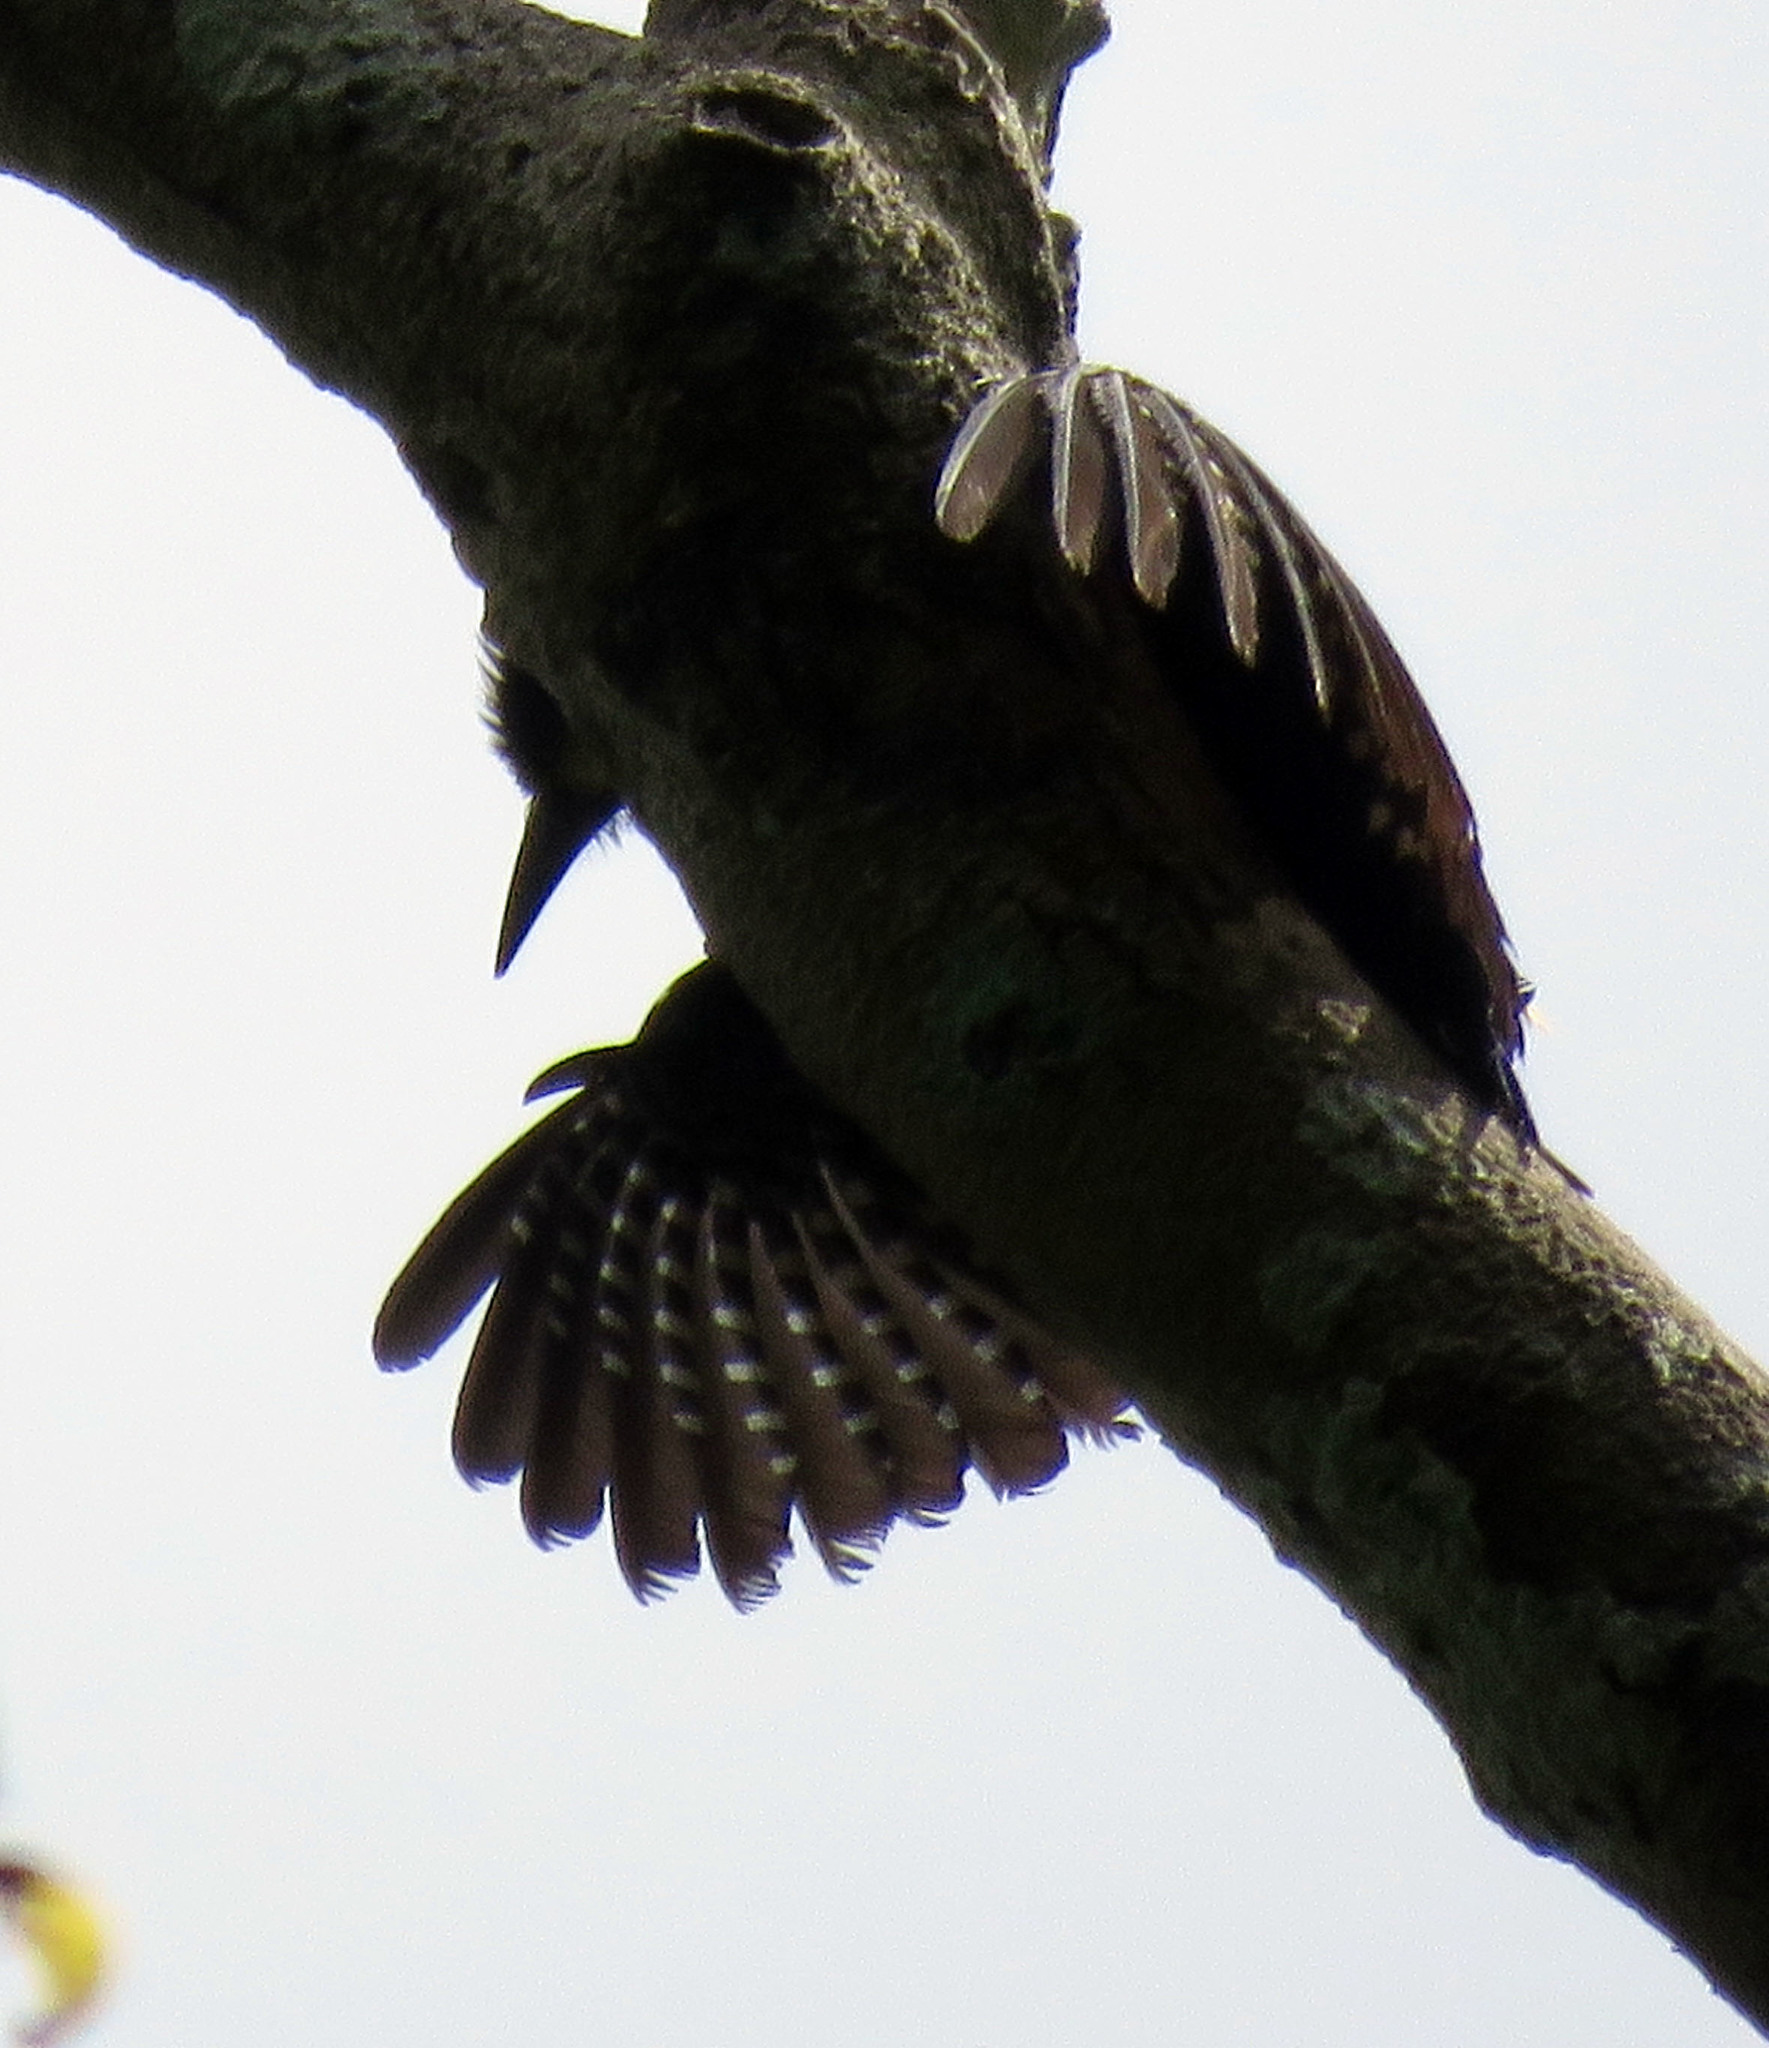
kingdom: Animalia
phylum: Chordata
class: Aves
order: Piciformes
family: Picidae
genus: Melanerpes
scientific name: Melanerpes cruentatus
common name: Yellow-tufted woodpecker
